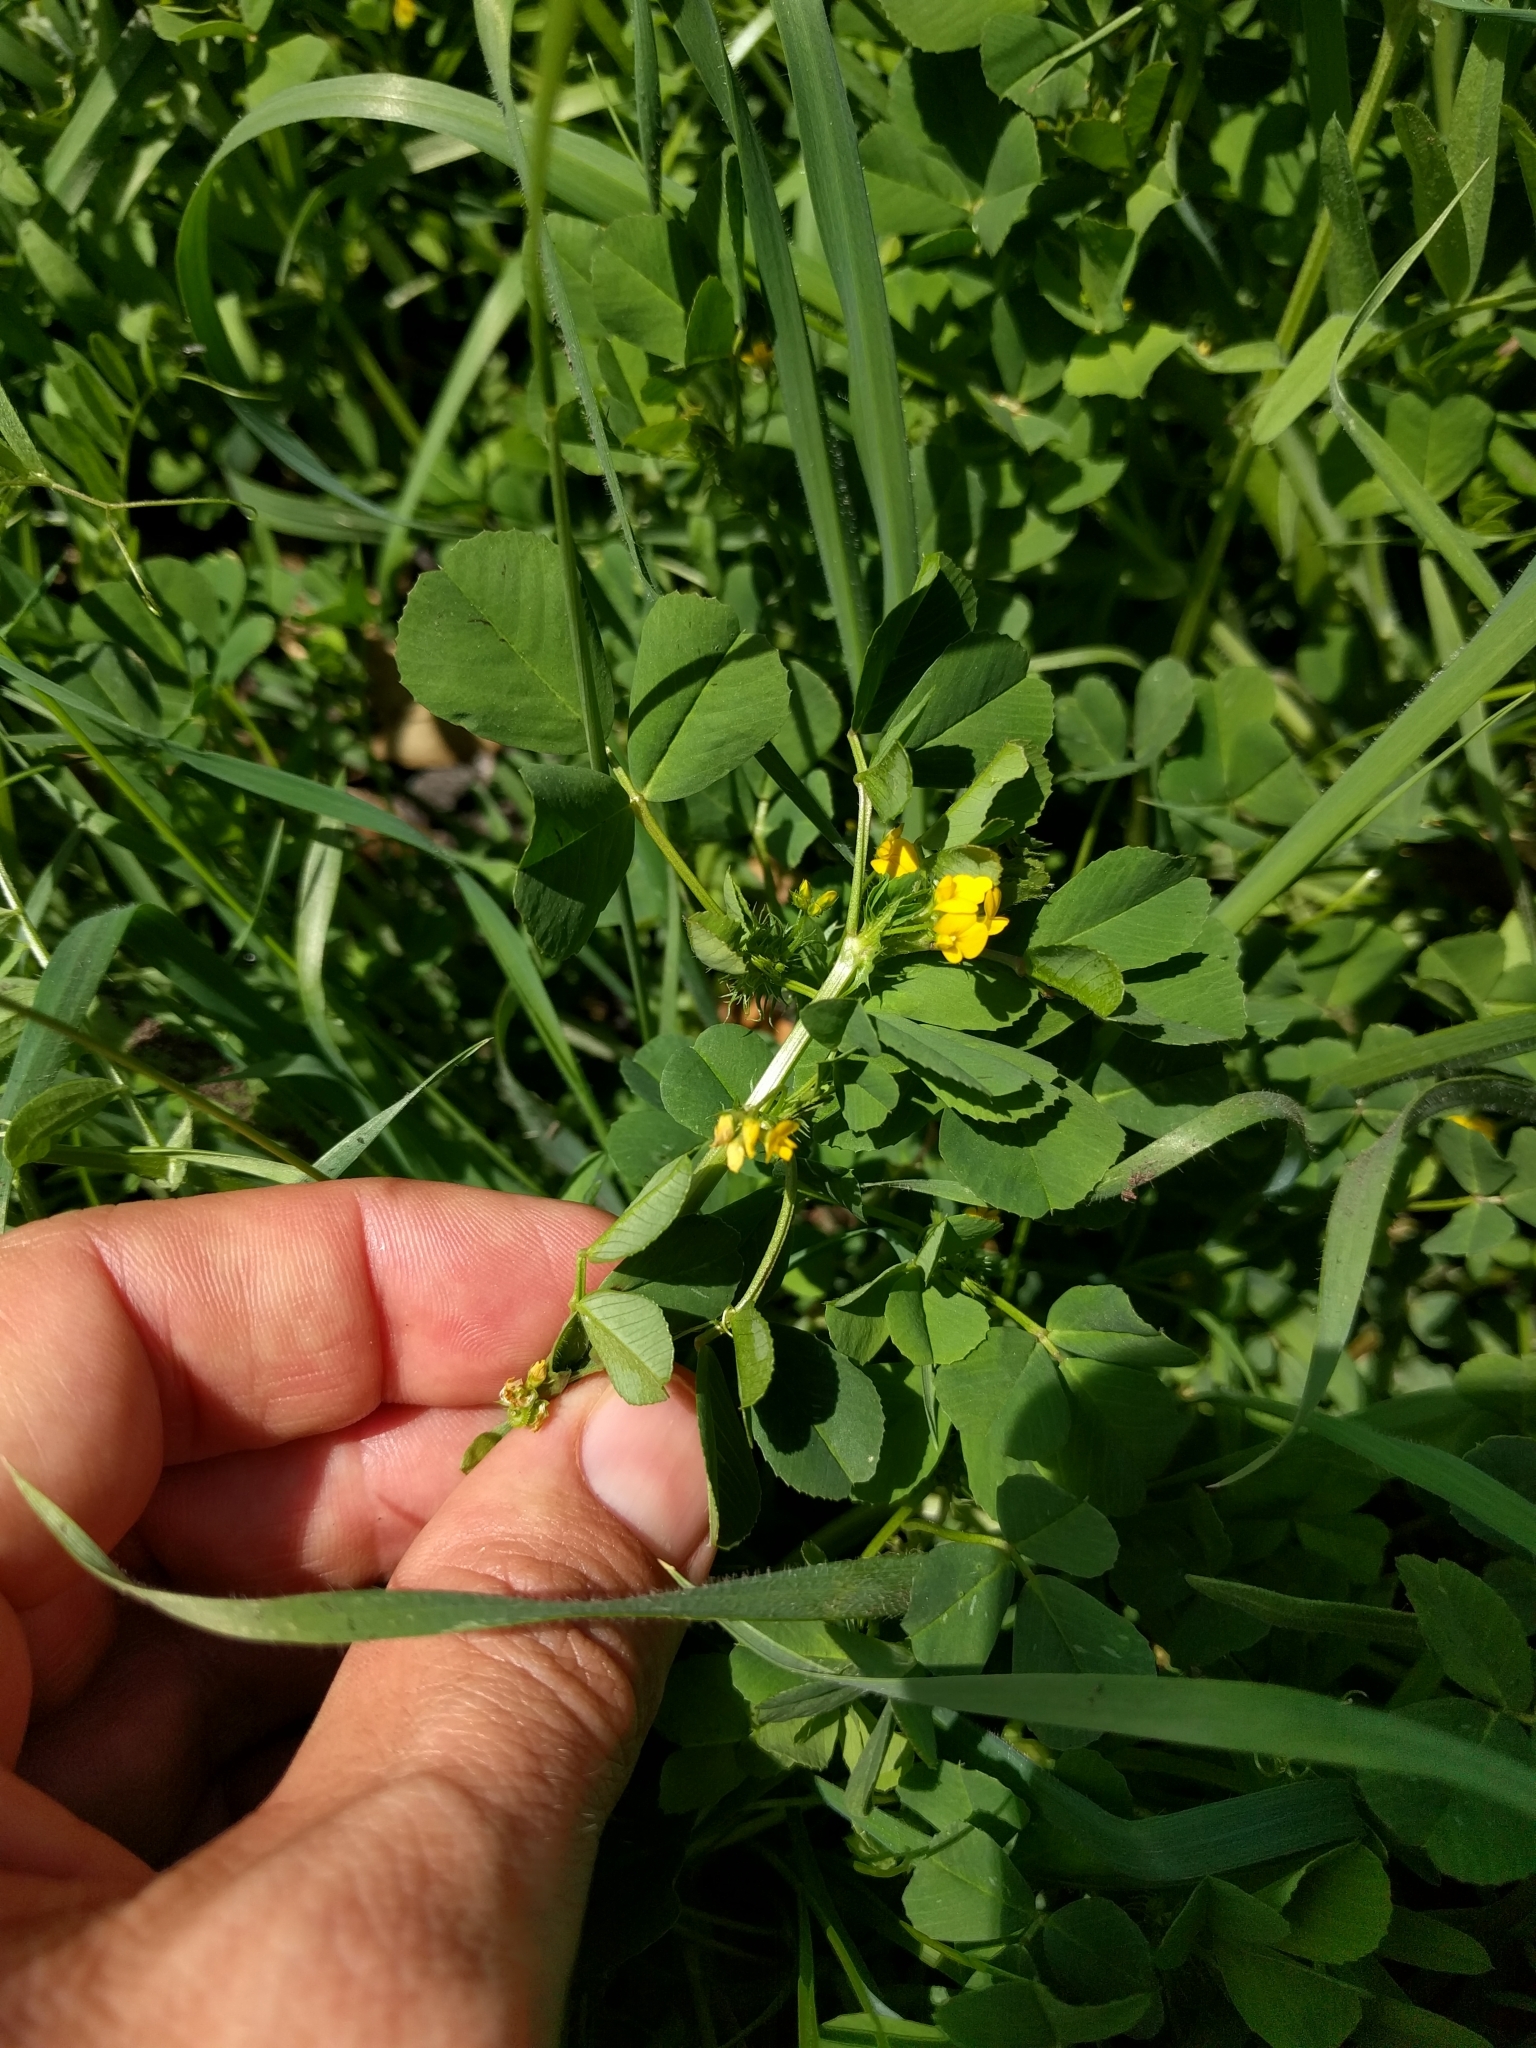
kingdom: Plantae
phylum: Tracheophyta
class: Magnoliopsida
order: Fabales
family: Fabaceae
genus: Medicago
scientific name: Medicago polymorpha
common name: Burclover
